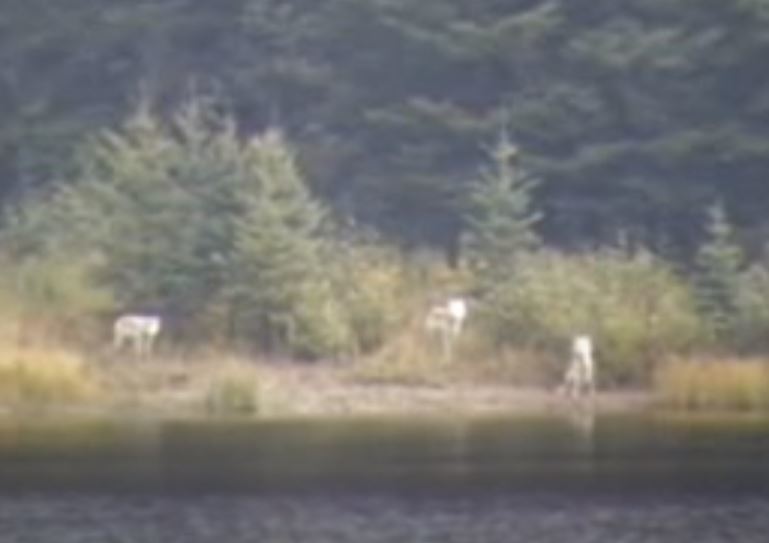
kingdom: Animalia
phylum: Chordata
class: Mammalia
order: Carnivora
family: Canidae
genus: Canis
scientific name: Canis lupus
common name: Gray wolf
